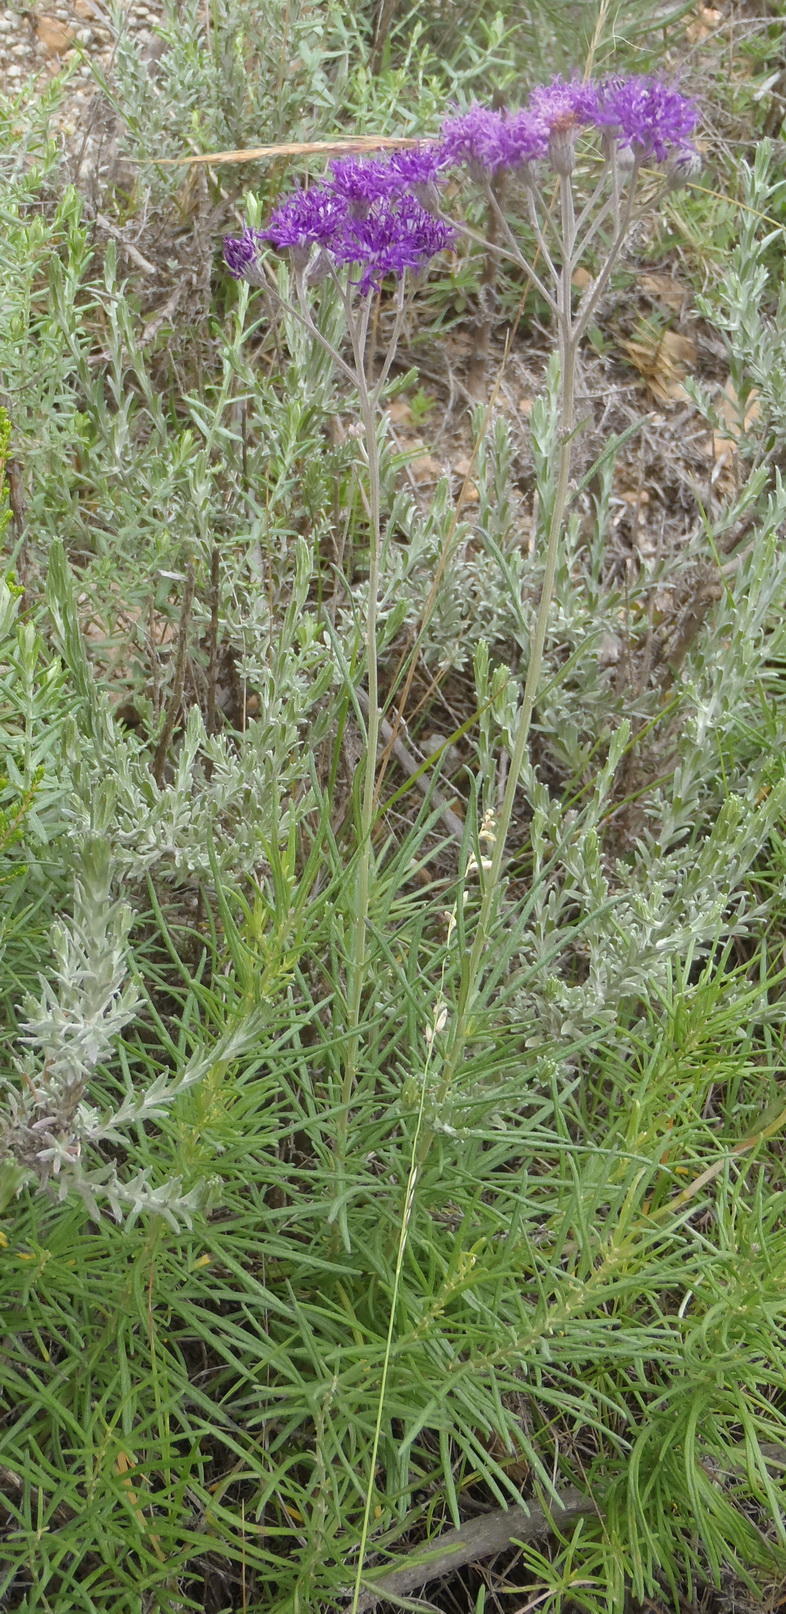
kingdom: Plantae
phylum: Tracheophyta
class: Magnoliopsida
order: Asterales
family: Asteraceae
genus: Hilliardiella
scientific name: Hilliardiella capensis
